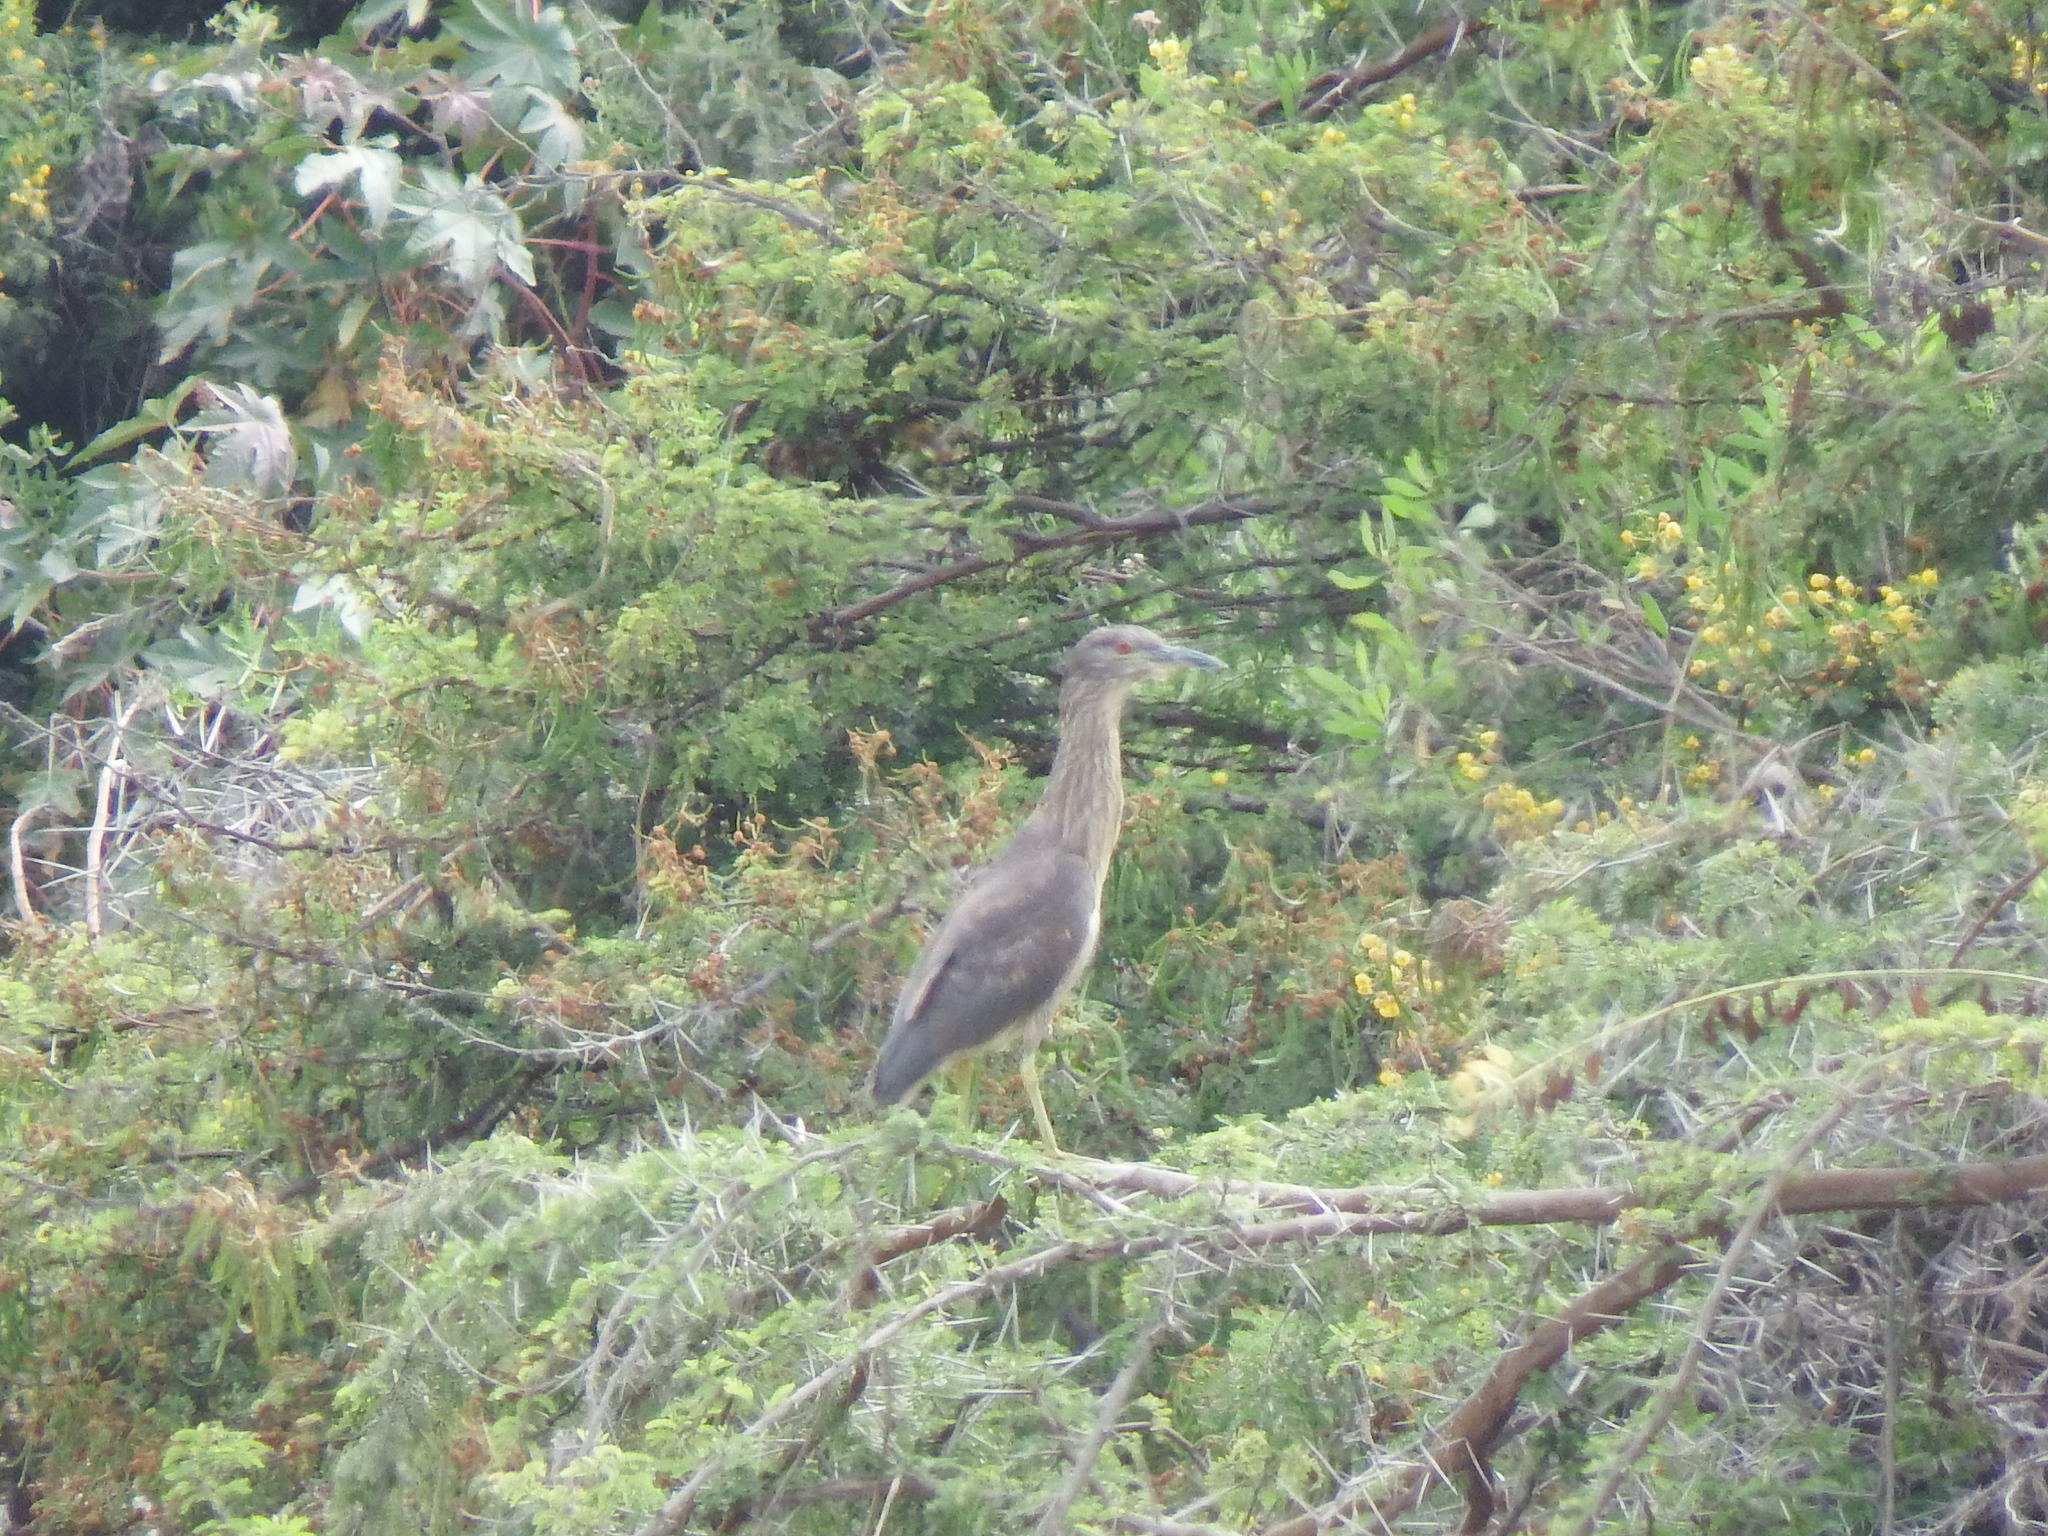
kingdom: Animalia
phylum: Chordata
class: Aves
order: Pelecaniformes
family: Ardeidae
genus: Nycticorax
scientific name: Nycticorax nycticorax
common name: Black-crowned night heron
